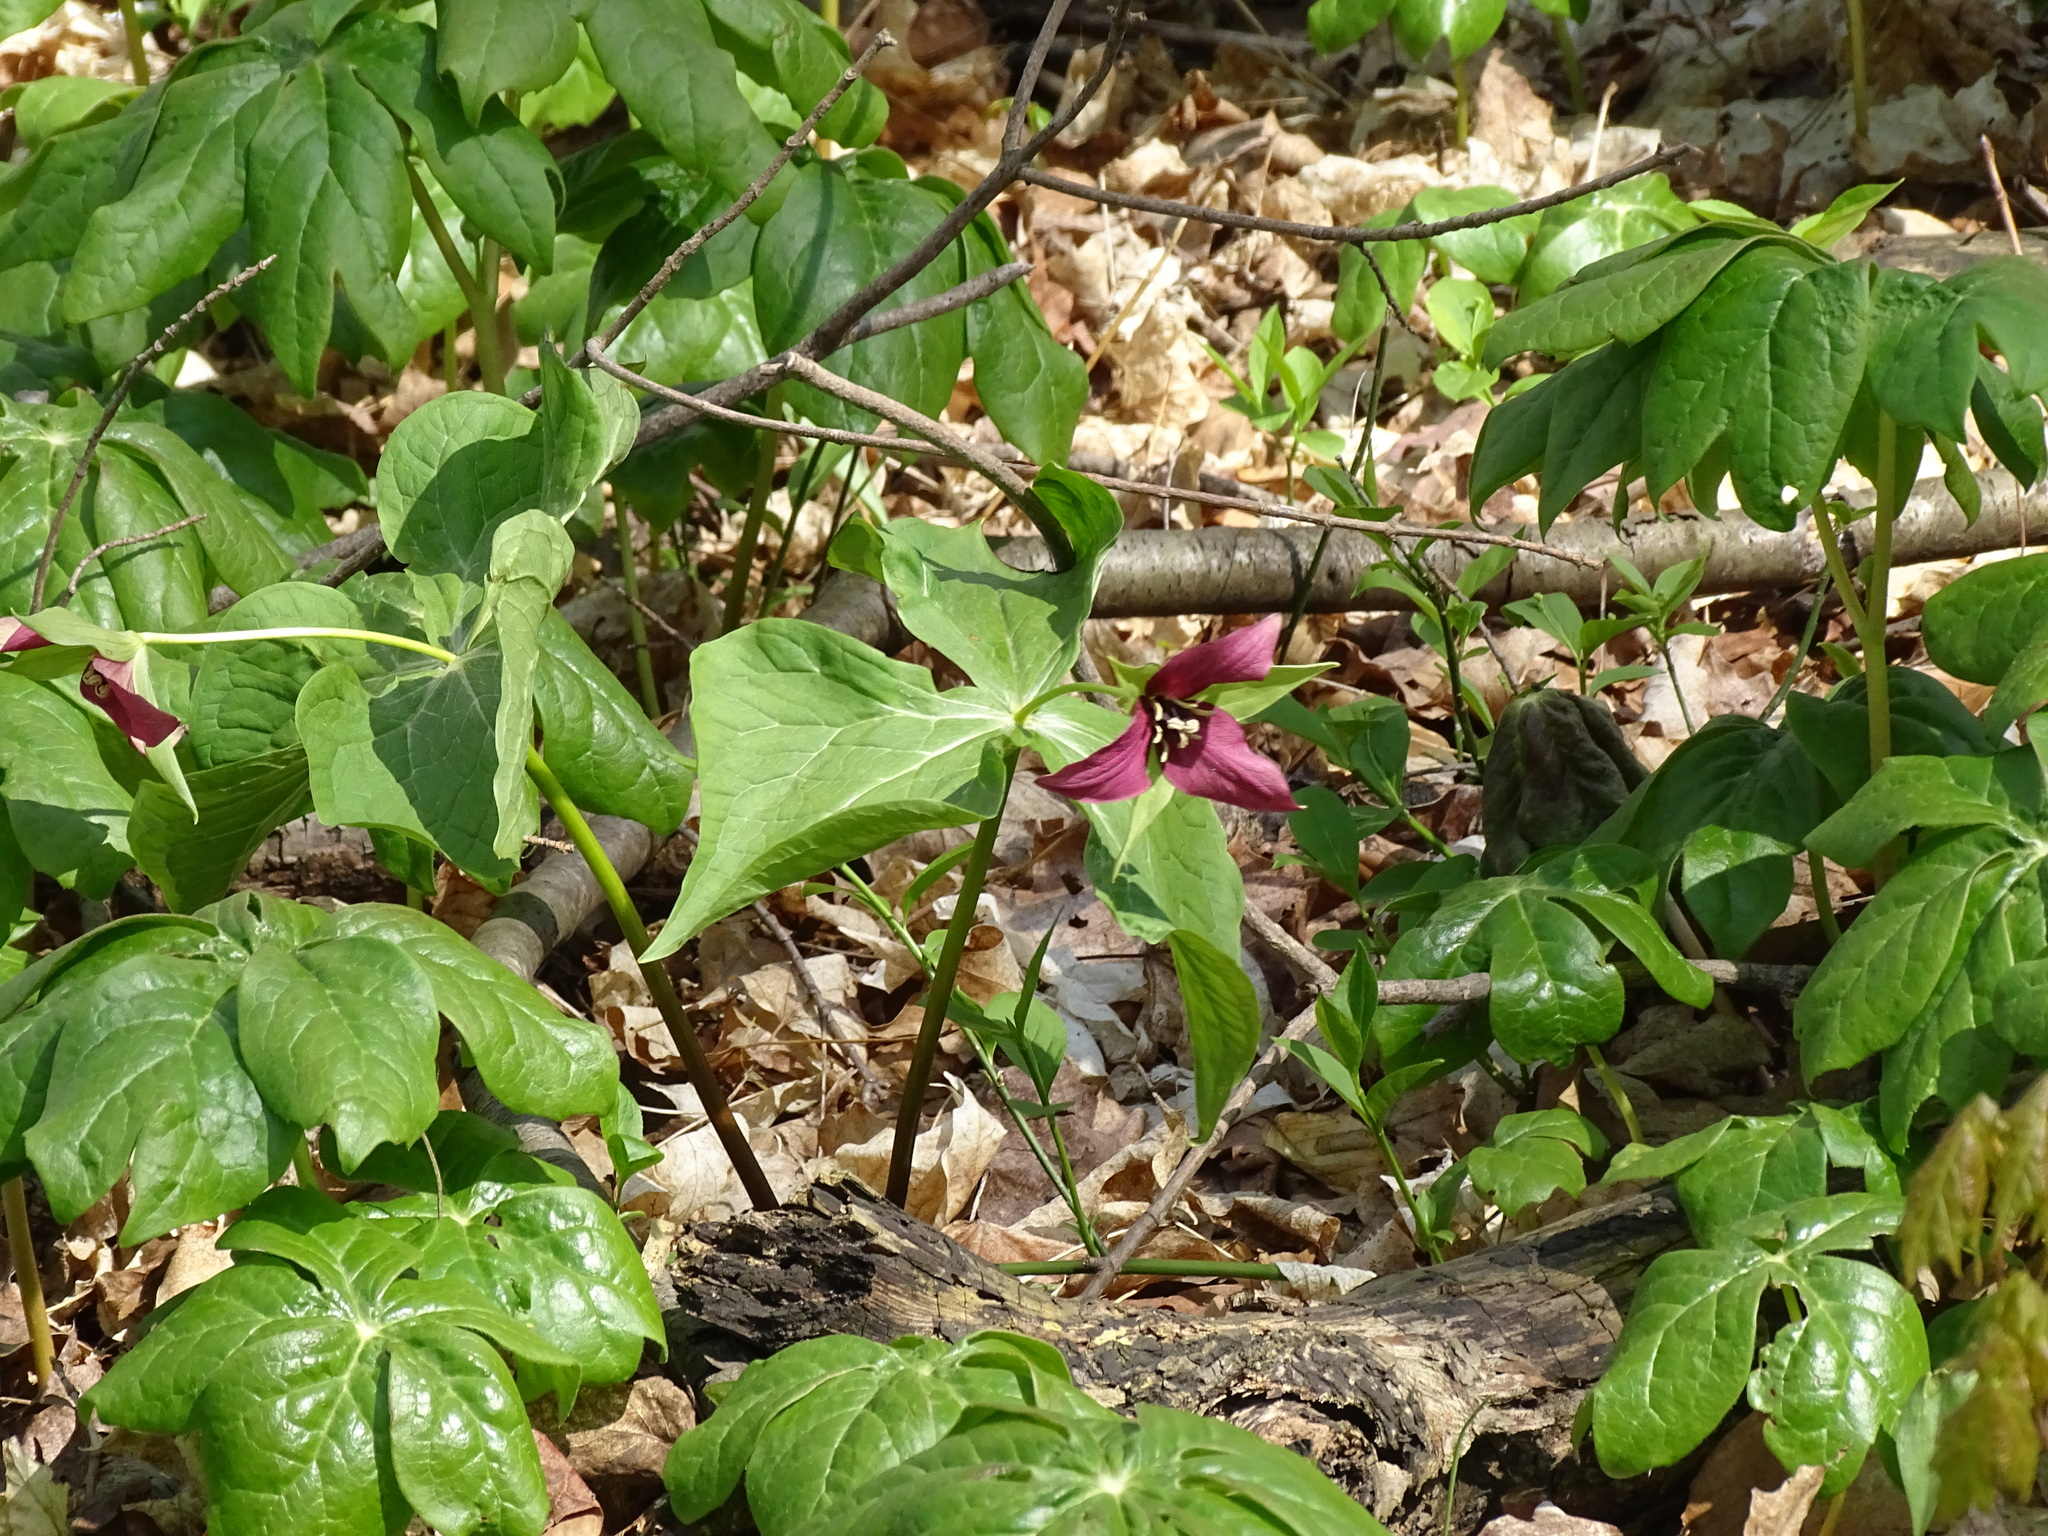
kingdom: Plantae
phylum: Tracheophyta
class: Liliopsida
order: Liliales
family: Melanthiaceae
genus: Trillium
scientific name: Trillium erectum
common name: Purple trillium
